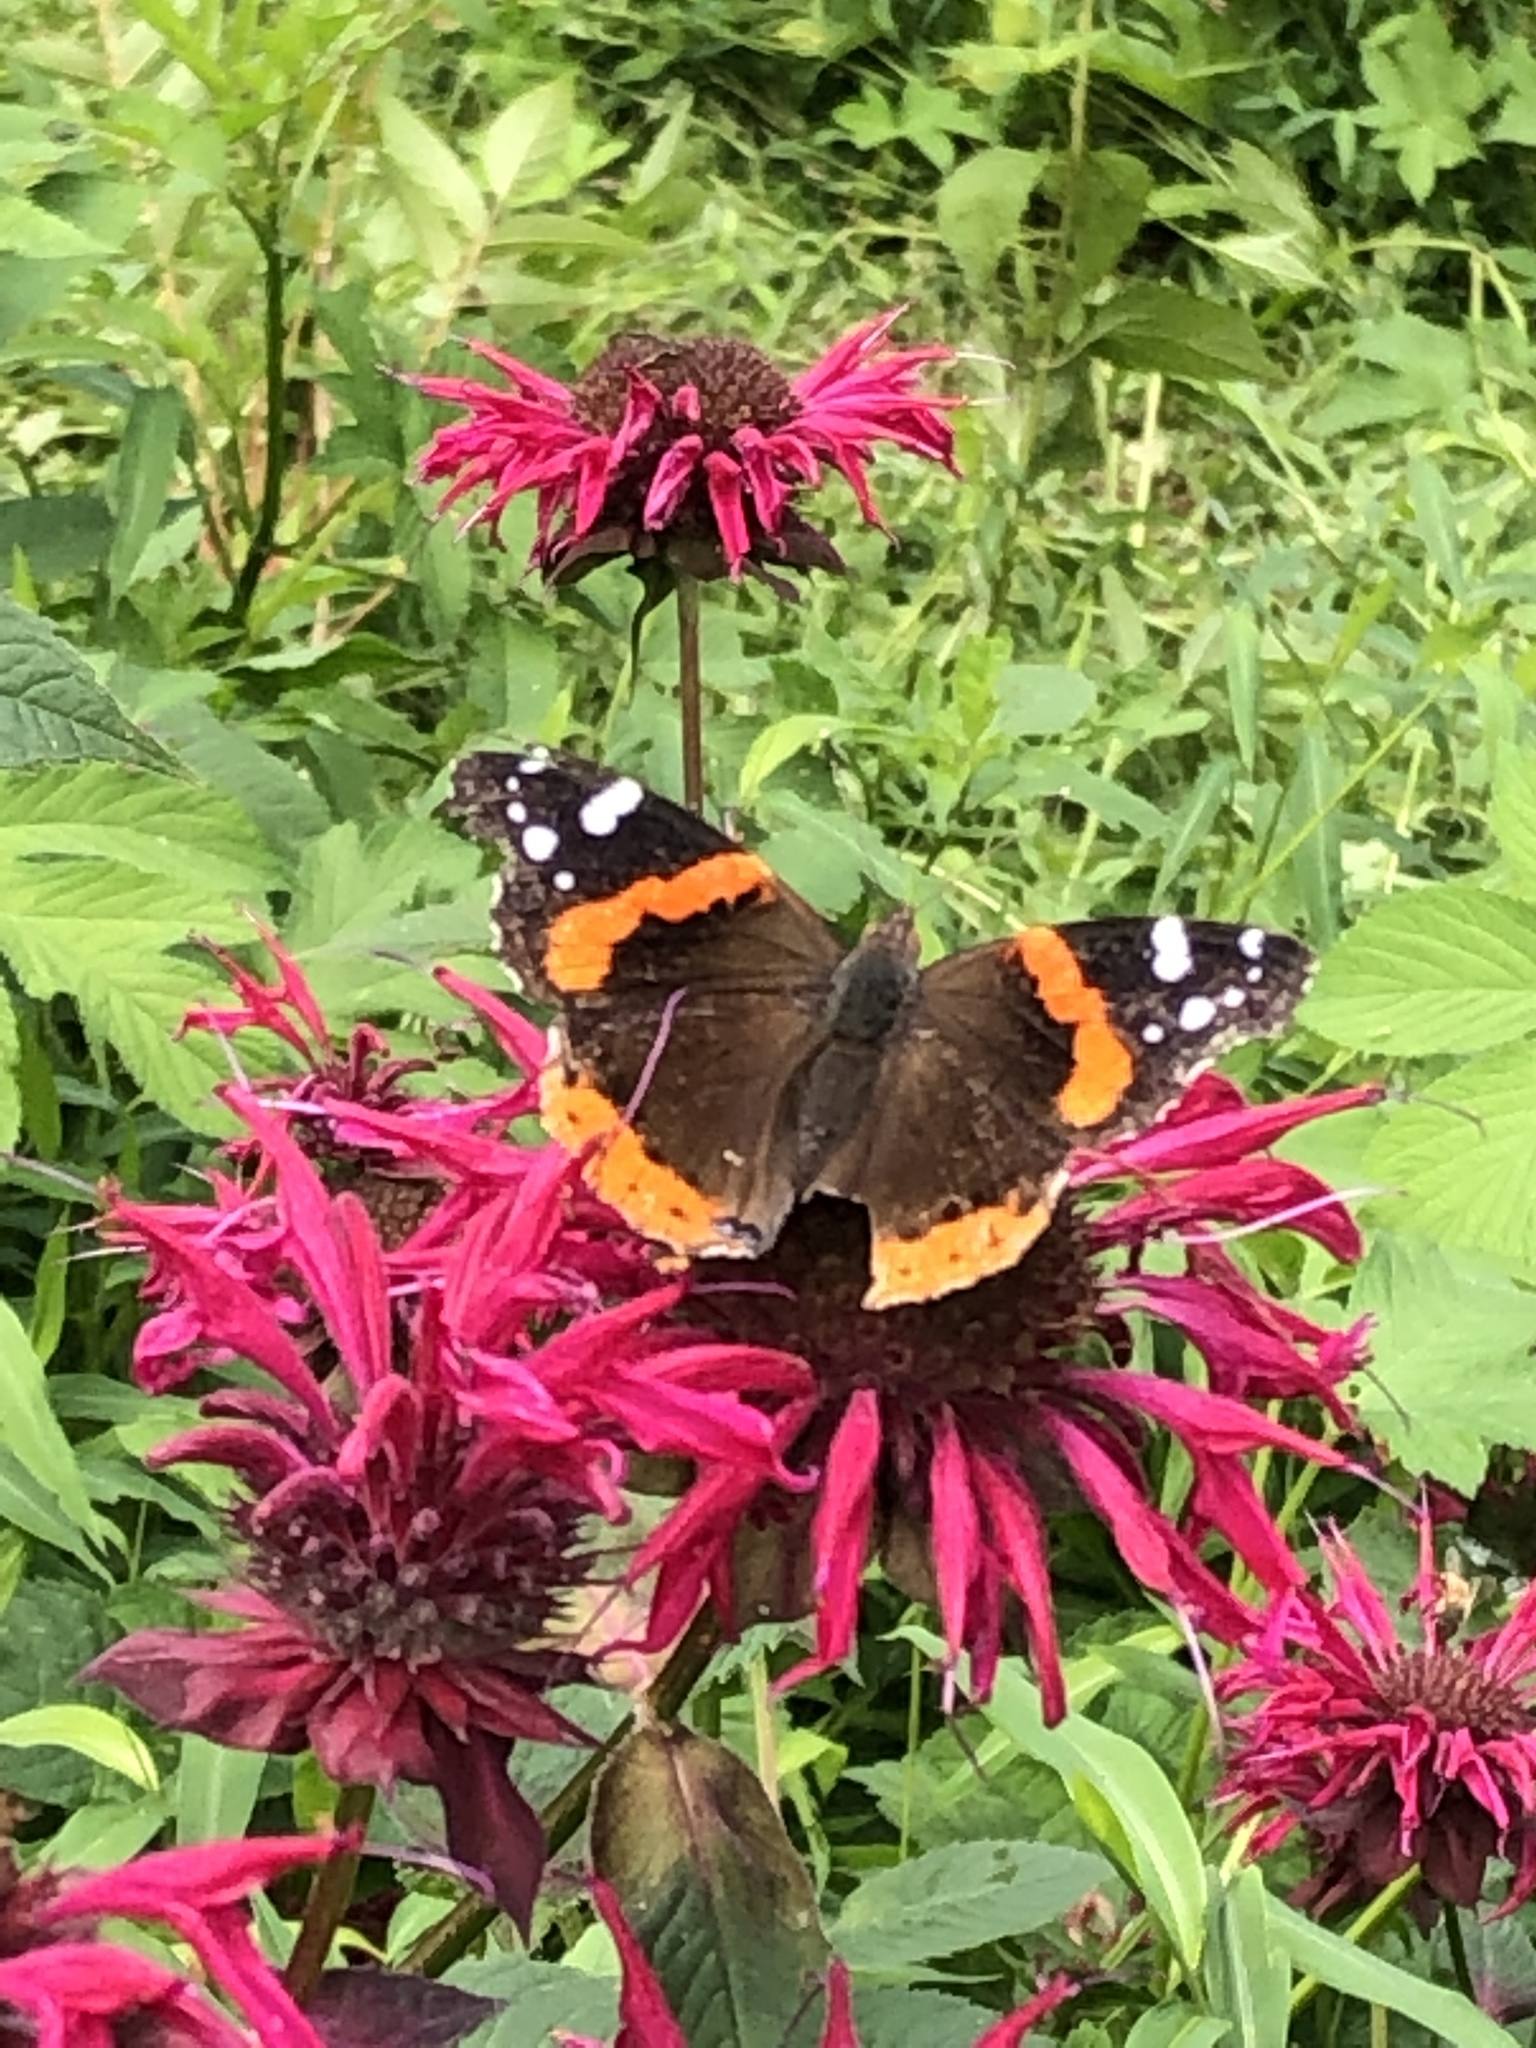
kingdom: Animalia
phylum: Arthropoda
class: Insecta
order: Lepidoptera
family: Nymphalidae
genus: Vanessa
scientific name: Vanessa atalanta
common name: Red admiral
